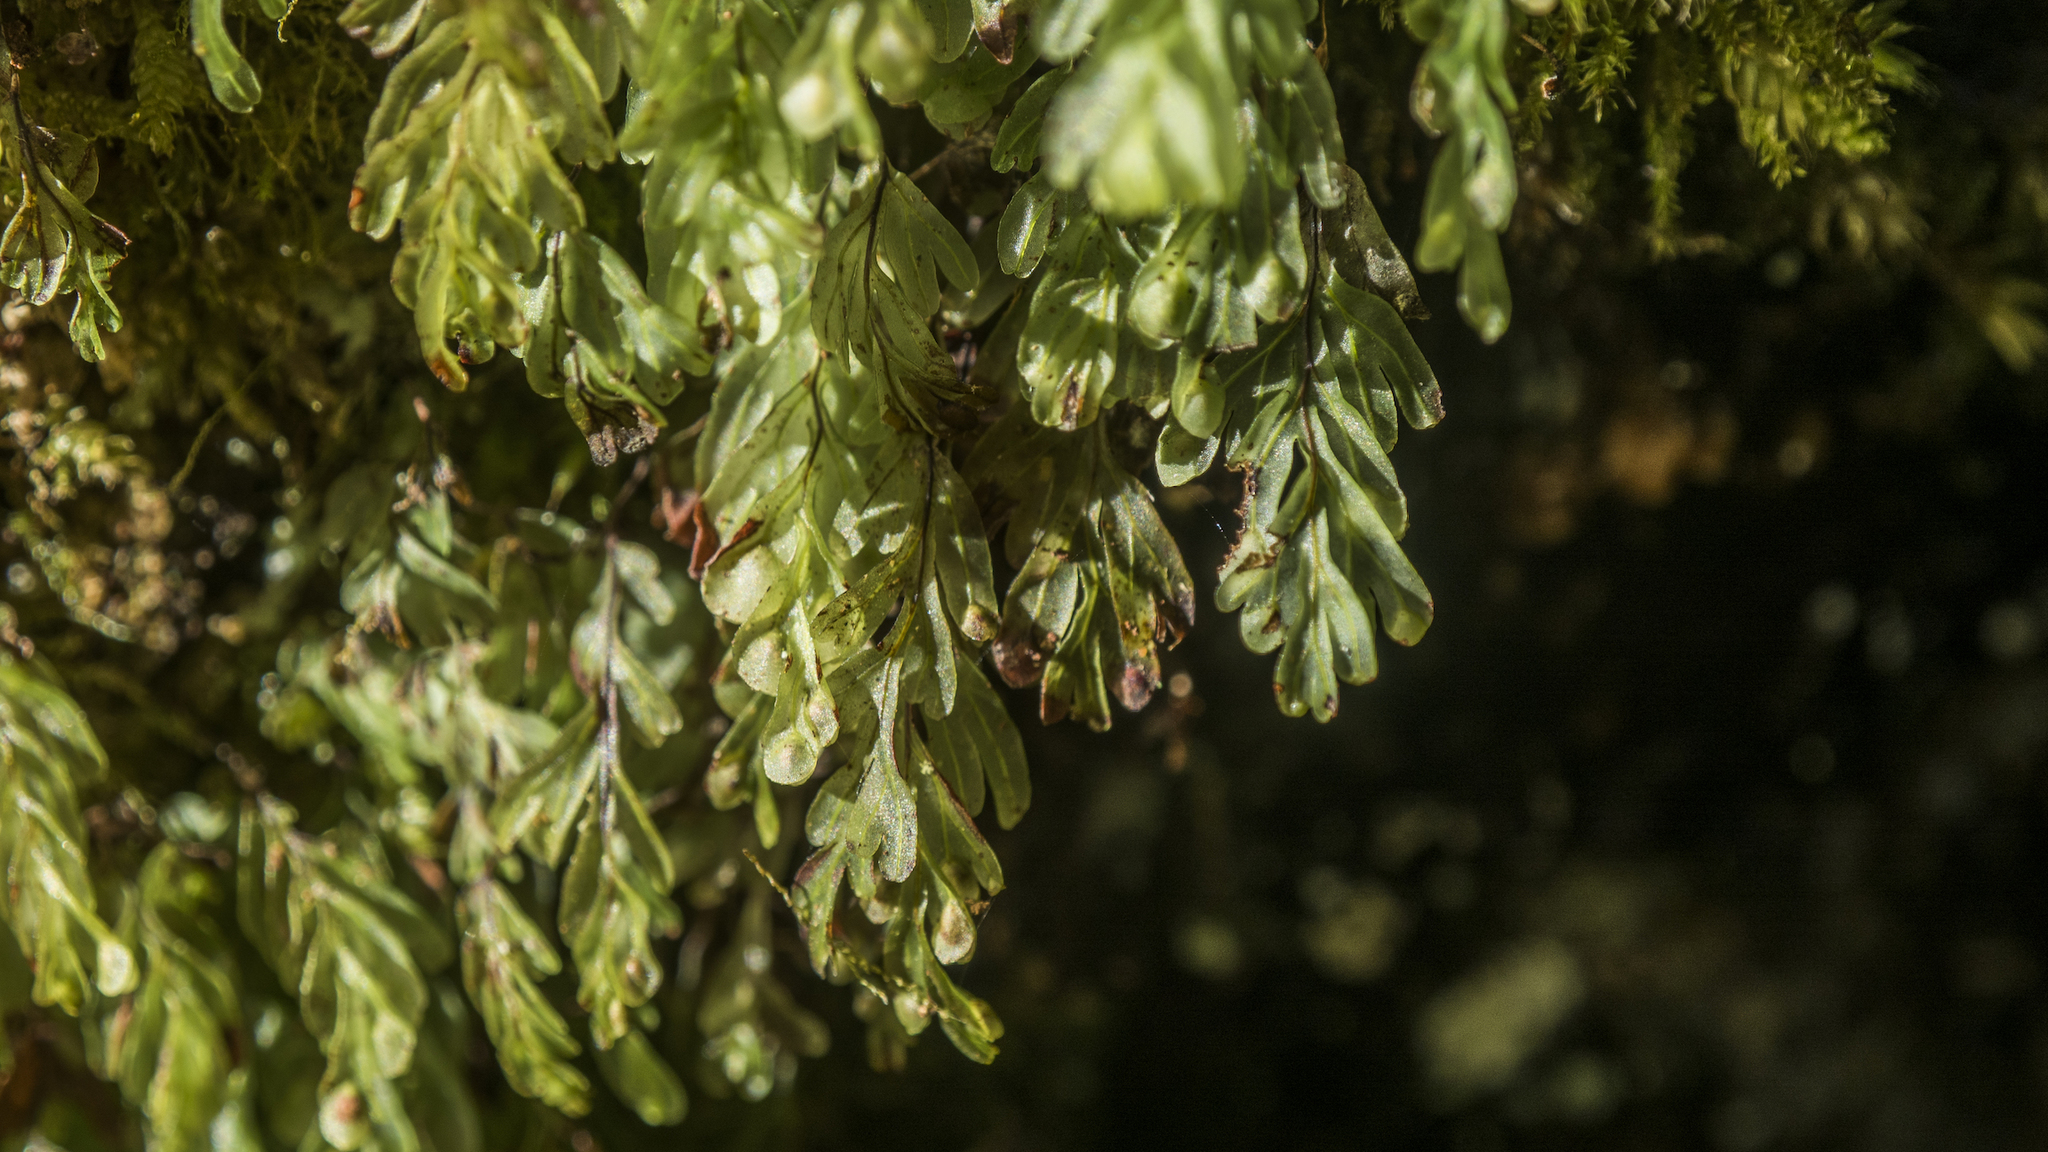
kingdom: Plantae
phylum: Tracheophyta
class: Polypodiopsida
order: Hymenophyllales
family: Hymenophyllaceae
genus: Hymenophyllum
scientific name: Hymenophyllum rarum
